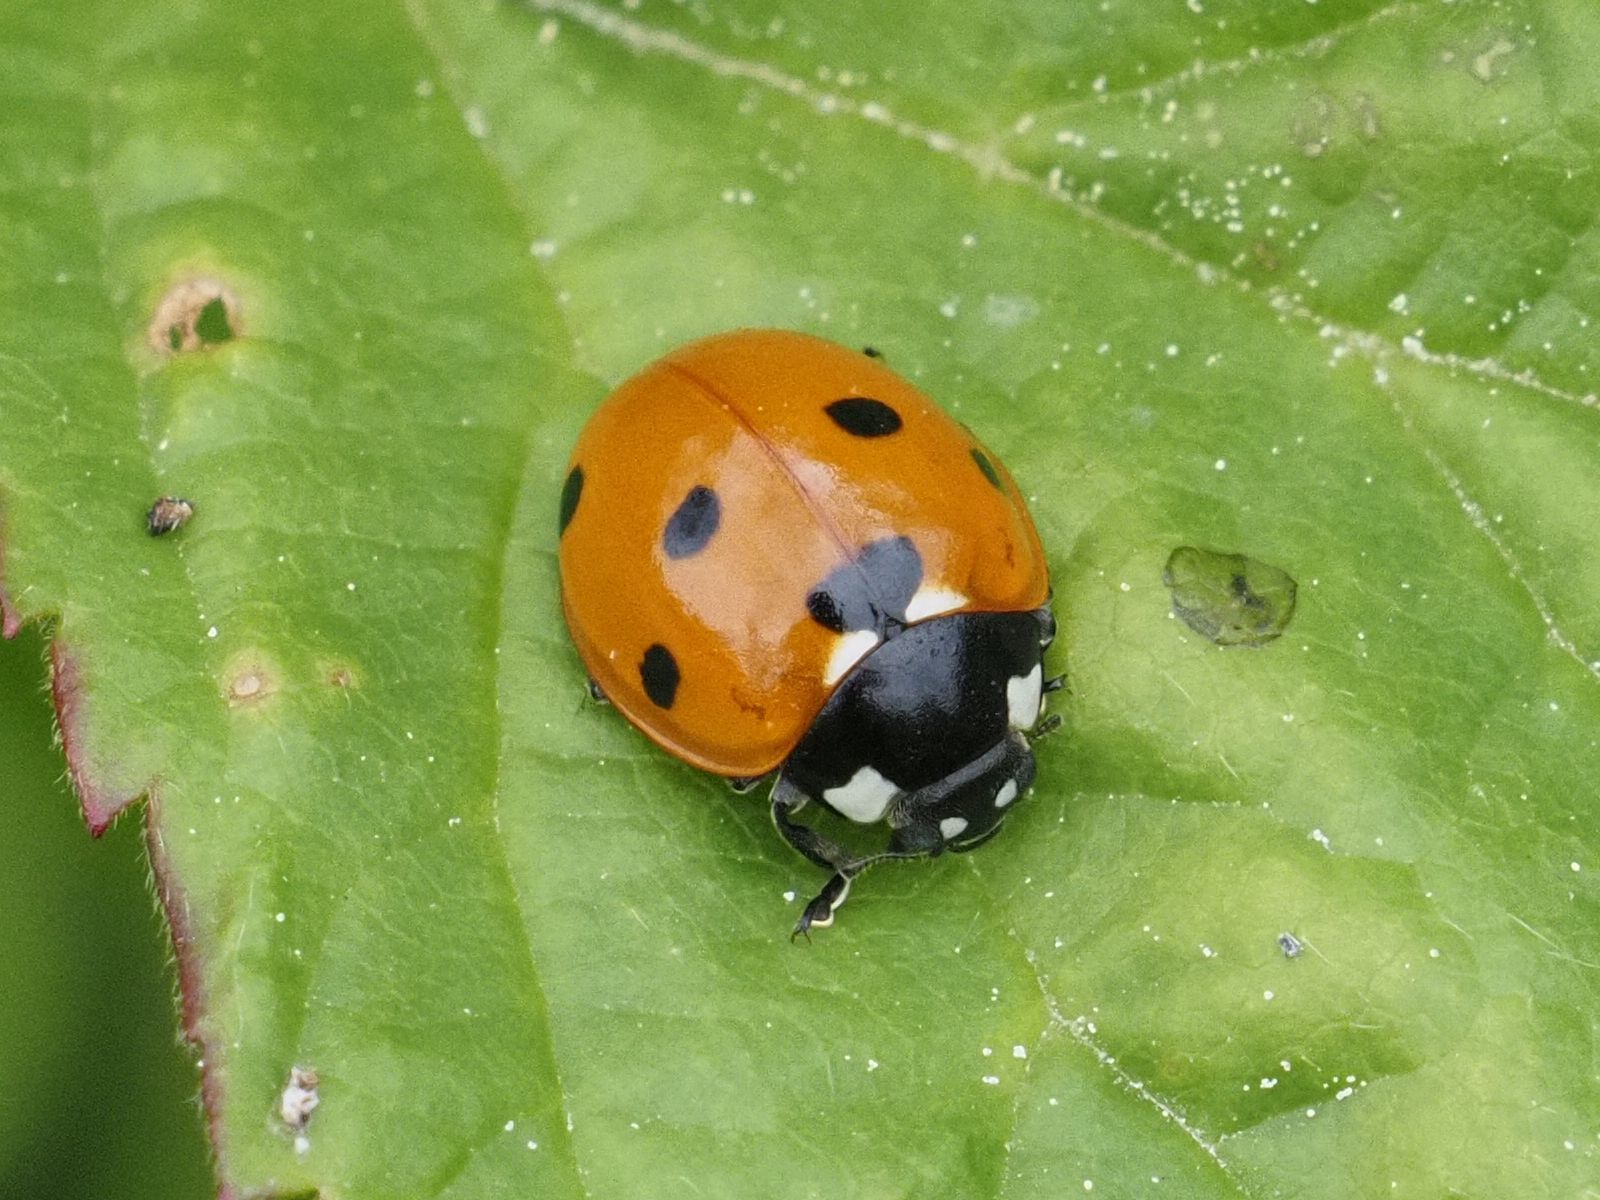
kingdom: Animalia
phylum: Arthropoda
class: Insecta
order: Coleoptera
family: Coccinellidae
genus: Coccinella
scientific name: Coccinella septempunctata
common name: Sevenspotted lady beetle
